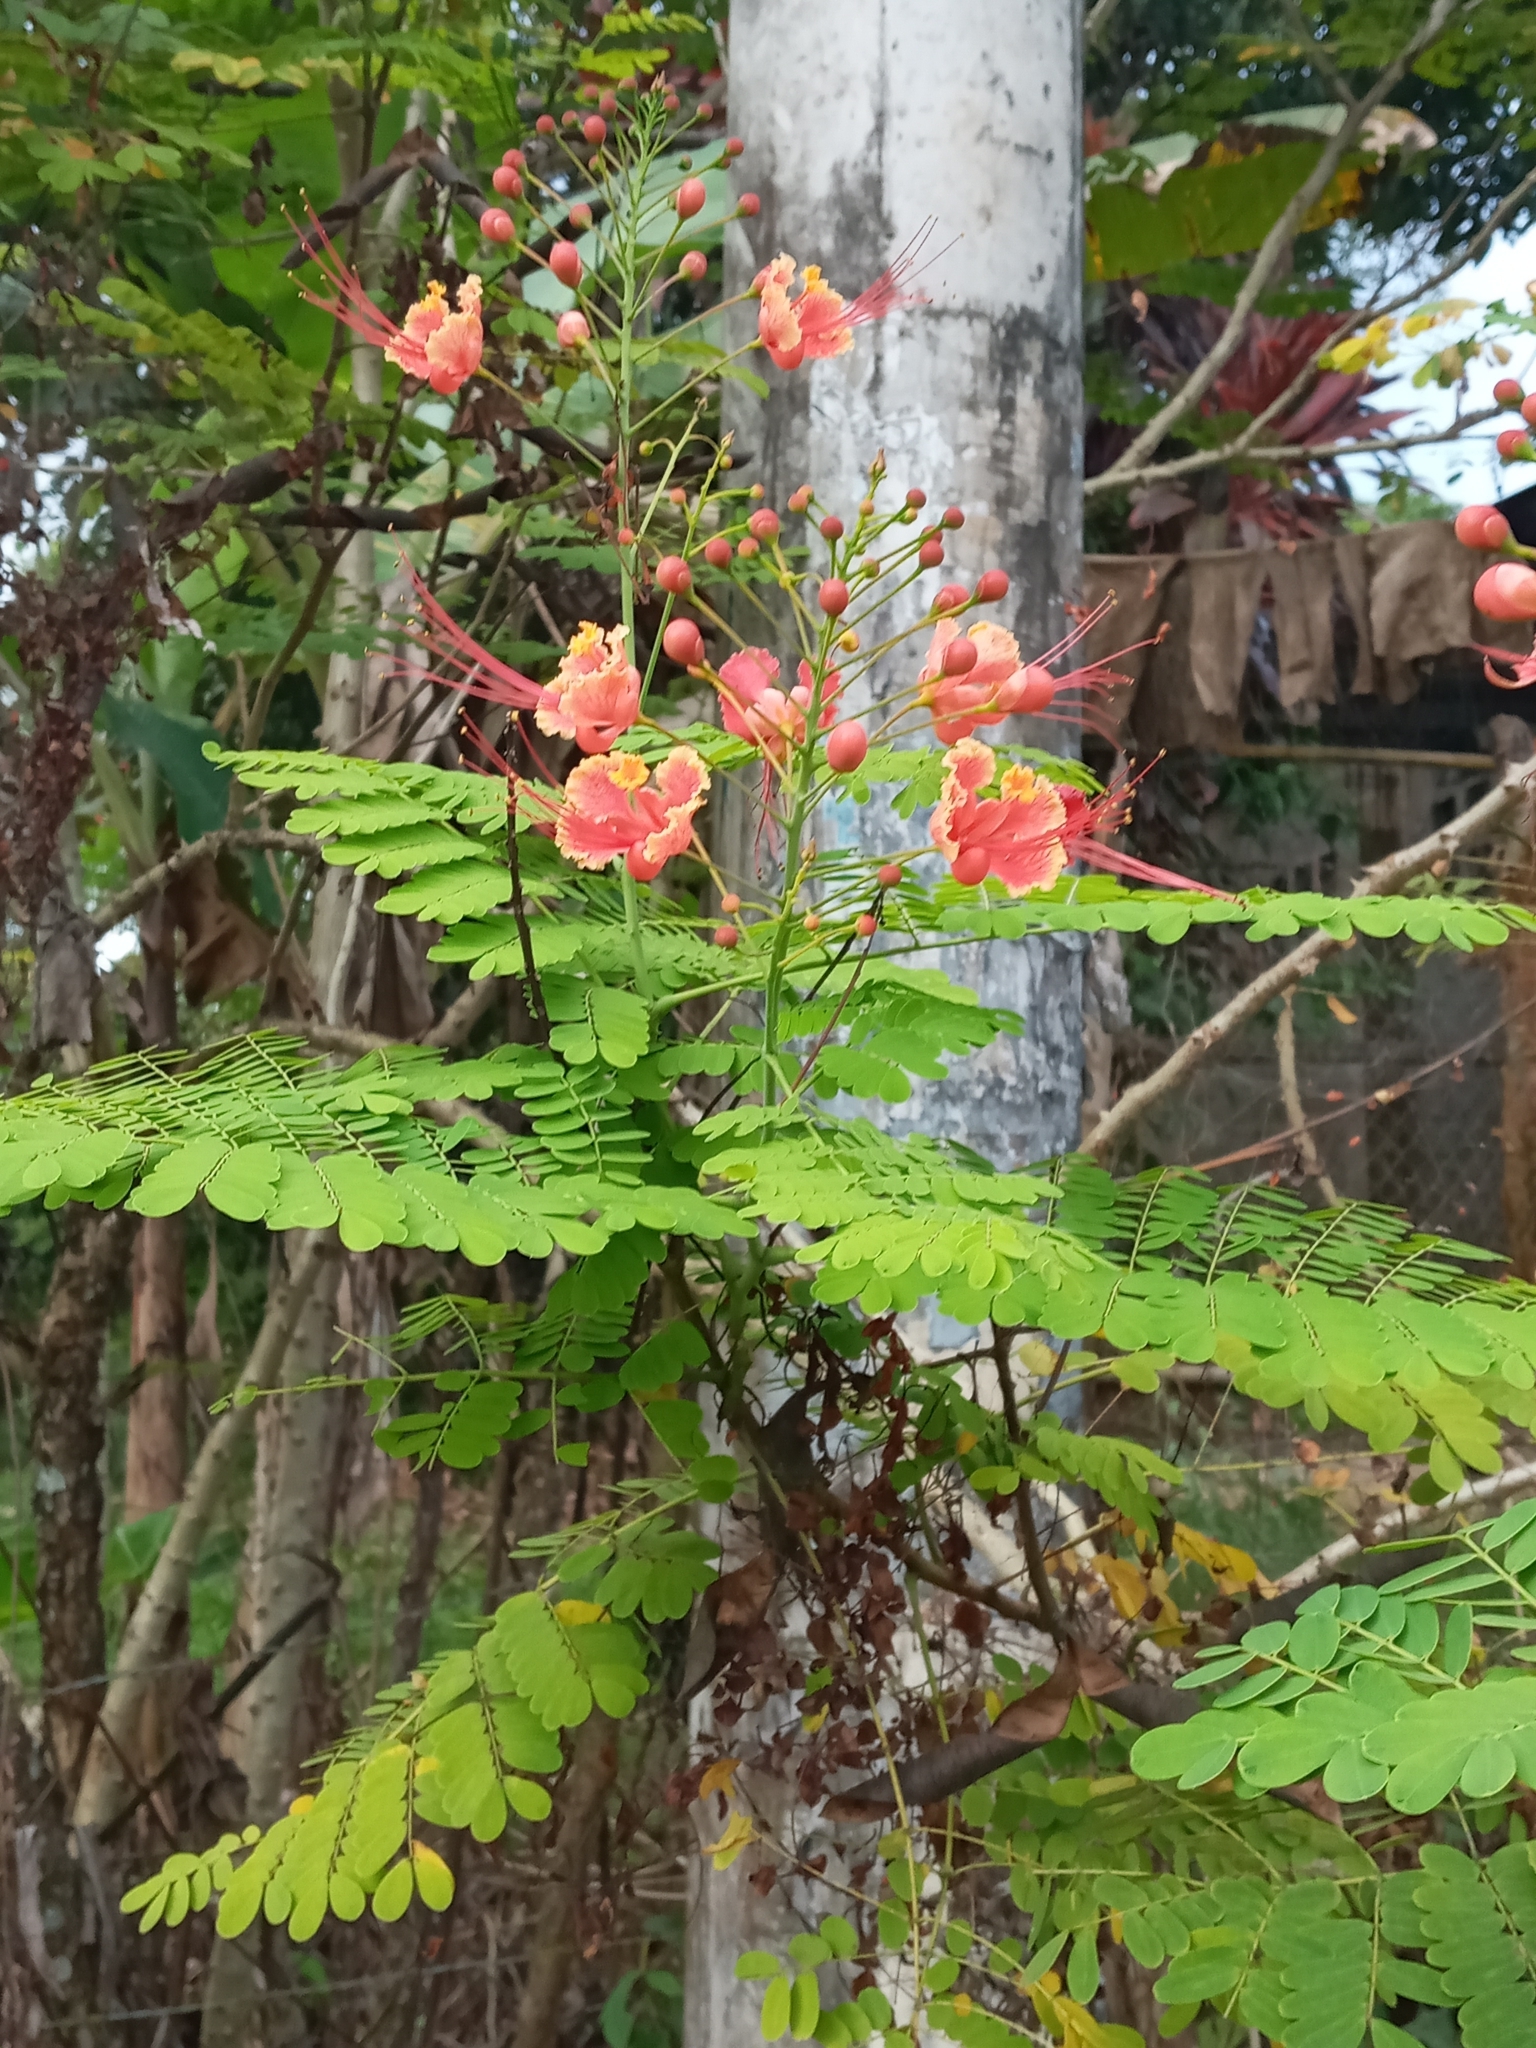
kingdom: Plantae
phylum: Tracheophyta
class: Magnoliopsida
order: Fabales
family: Fabaceae
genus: Caesalpinia
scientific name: Caesalpinia pulcherrima
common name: Pride-of-barbados
